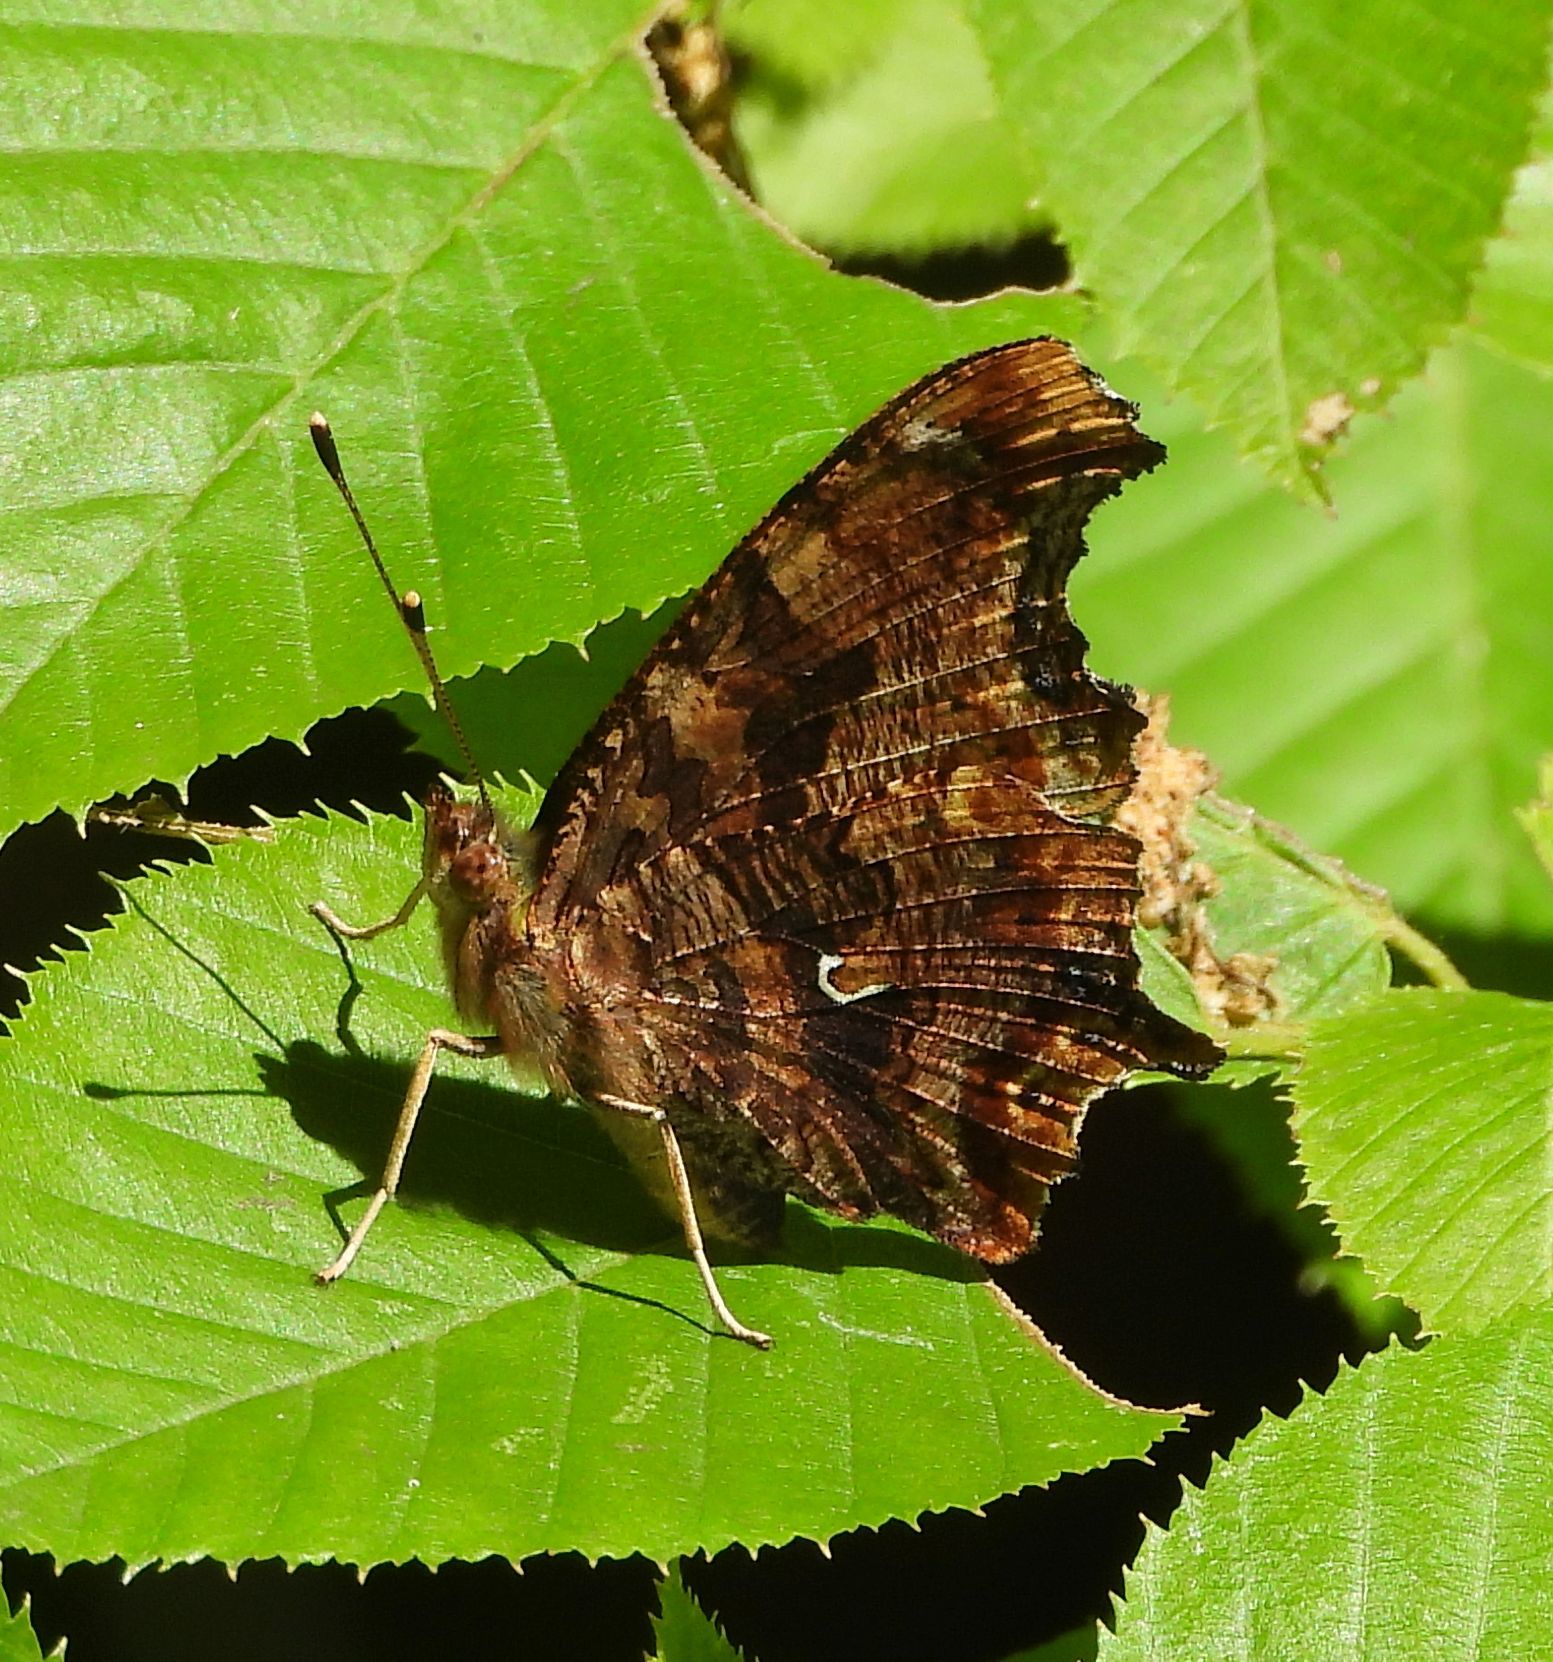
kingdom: Animalia
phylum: Arthropoda
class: Insecta
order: Lepidoptera
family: Nymphalidae
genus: Polygonia
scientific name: Polygonia comma
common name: Eastern comma
